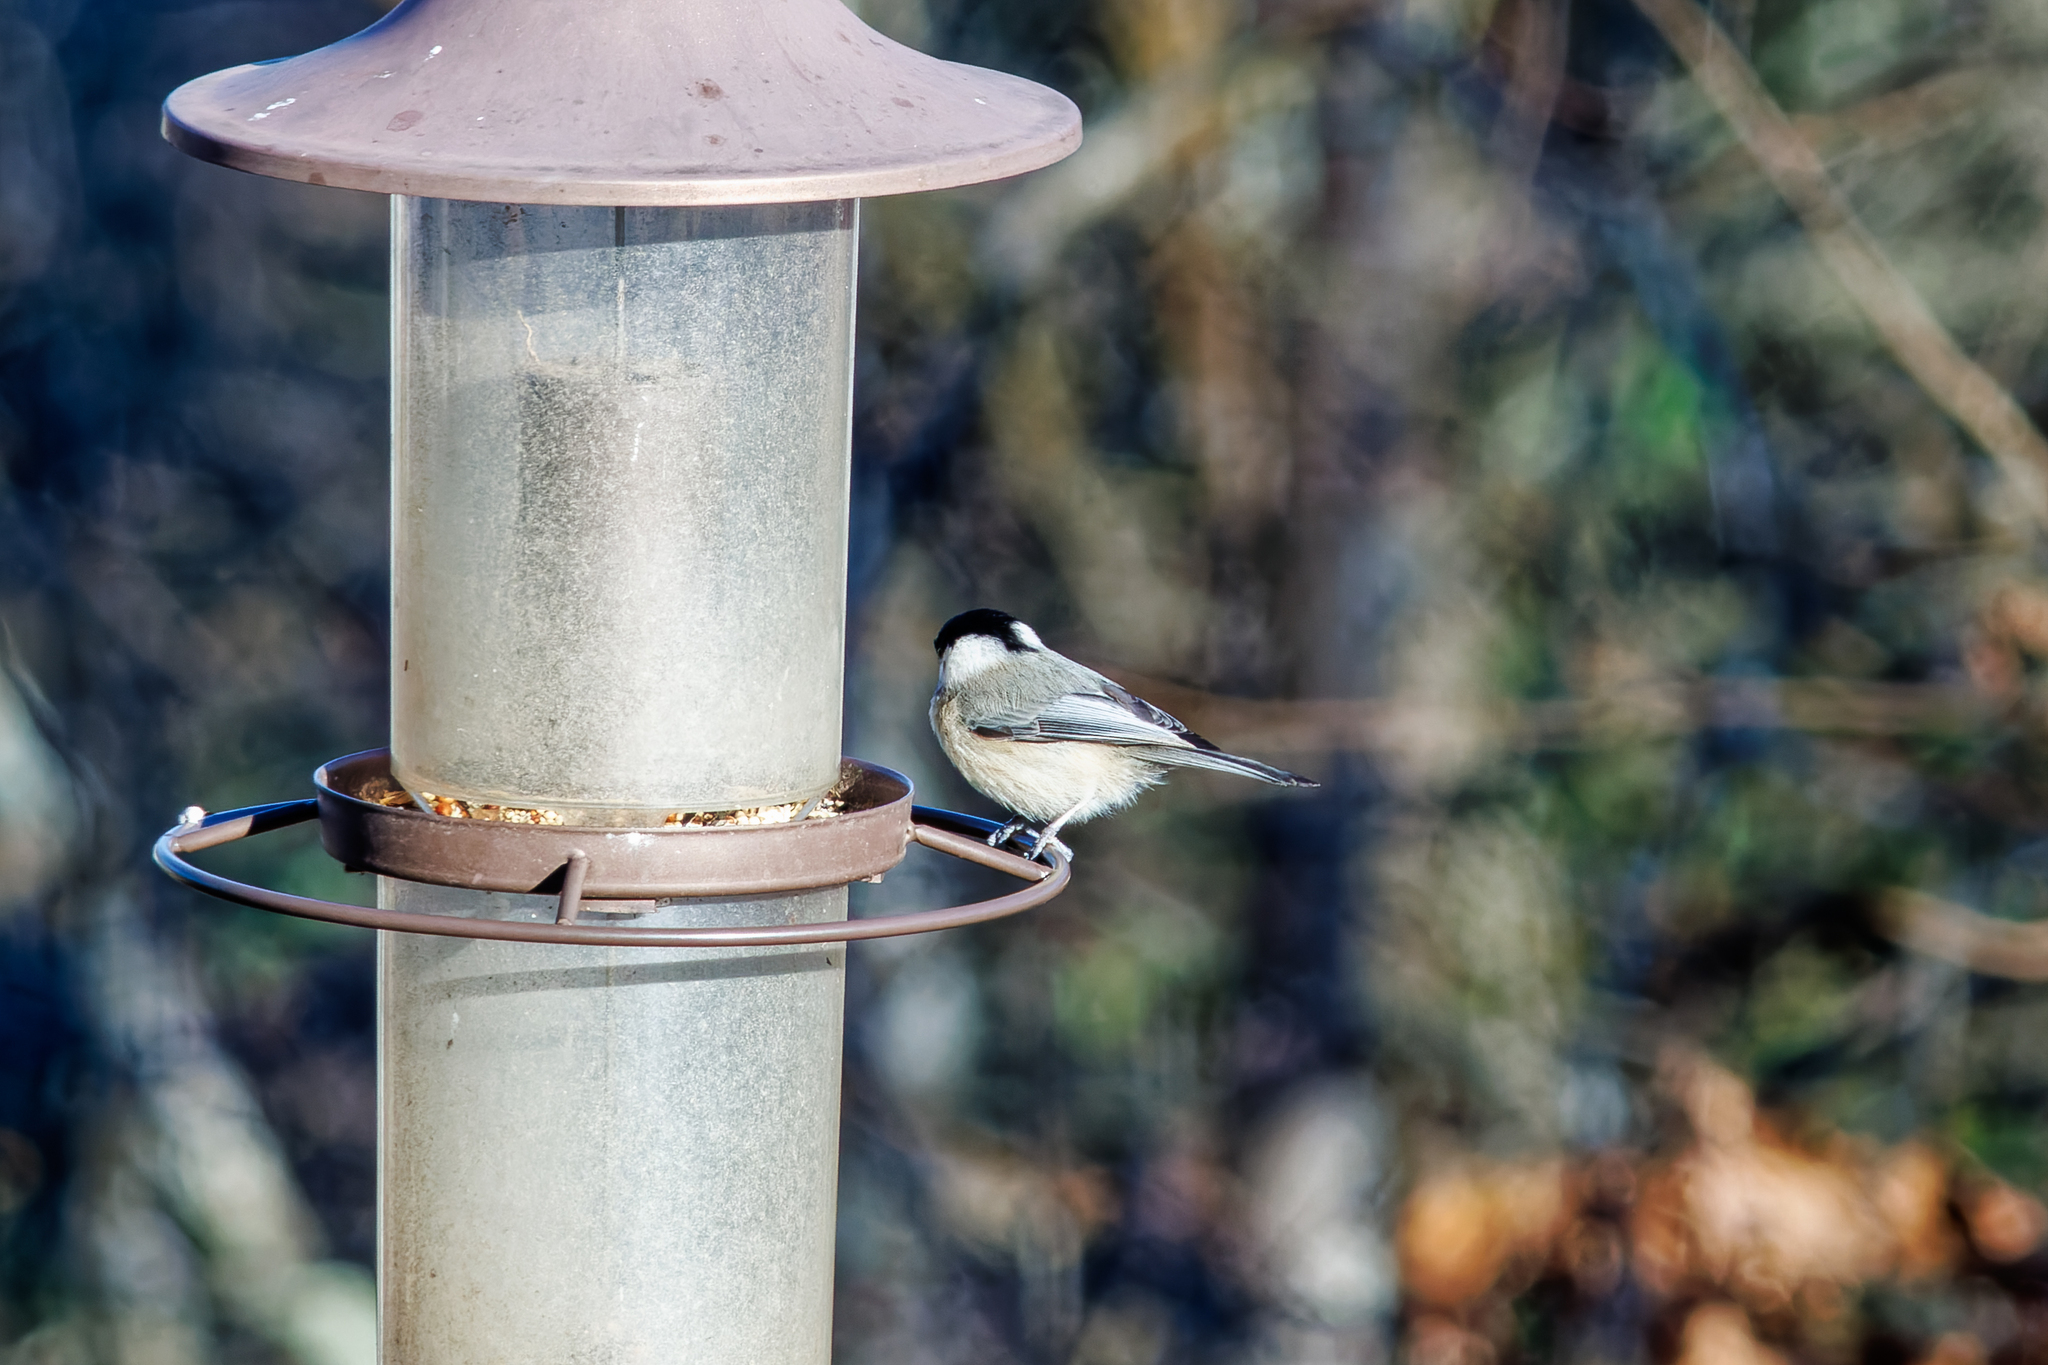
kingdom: Animalia
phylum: Chordata
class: Aves
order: Passeriformes
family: Paridae
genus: Poecile
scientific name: Poecile carolinensis
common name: Carolina chickadee
